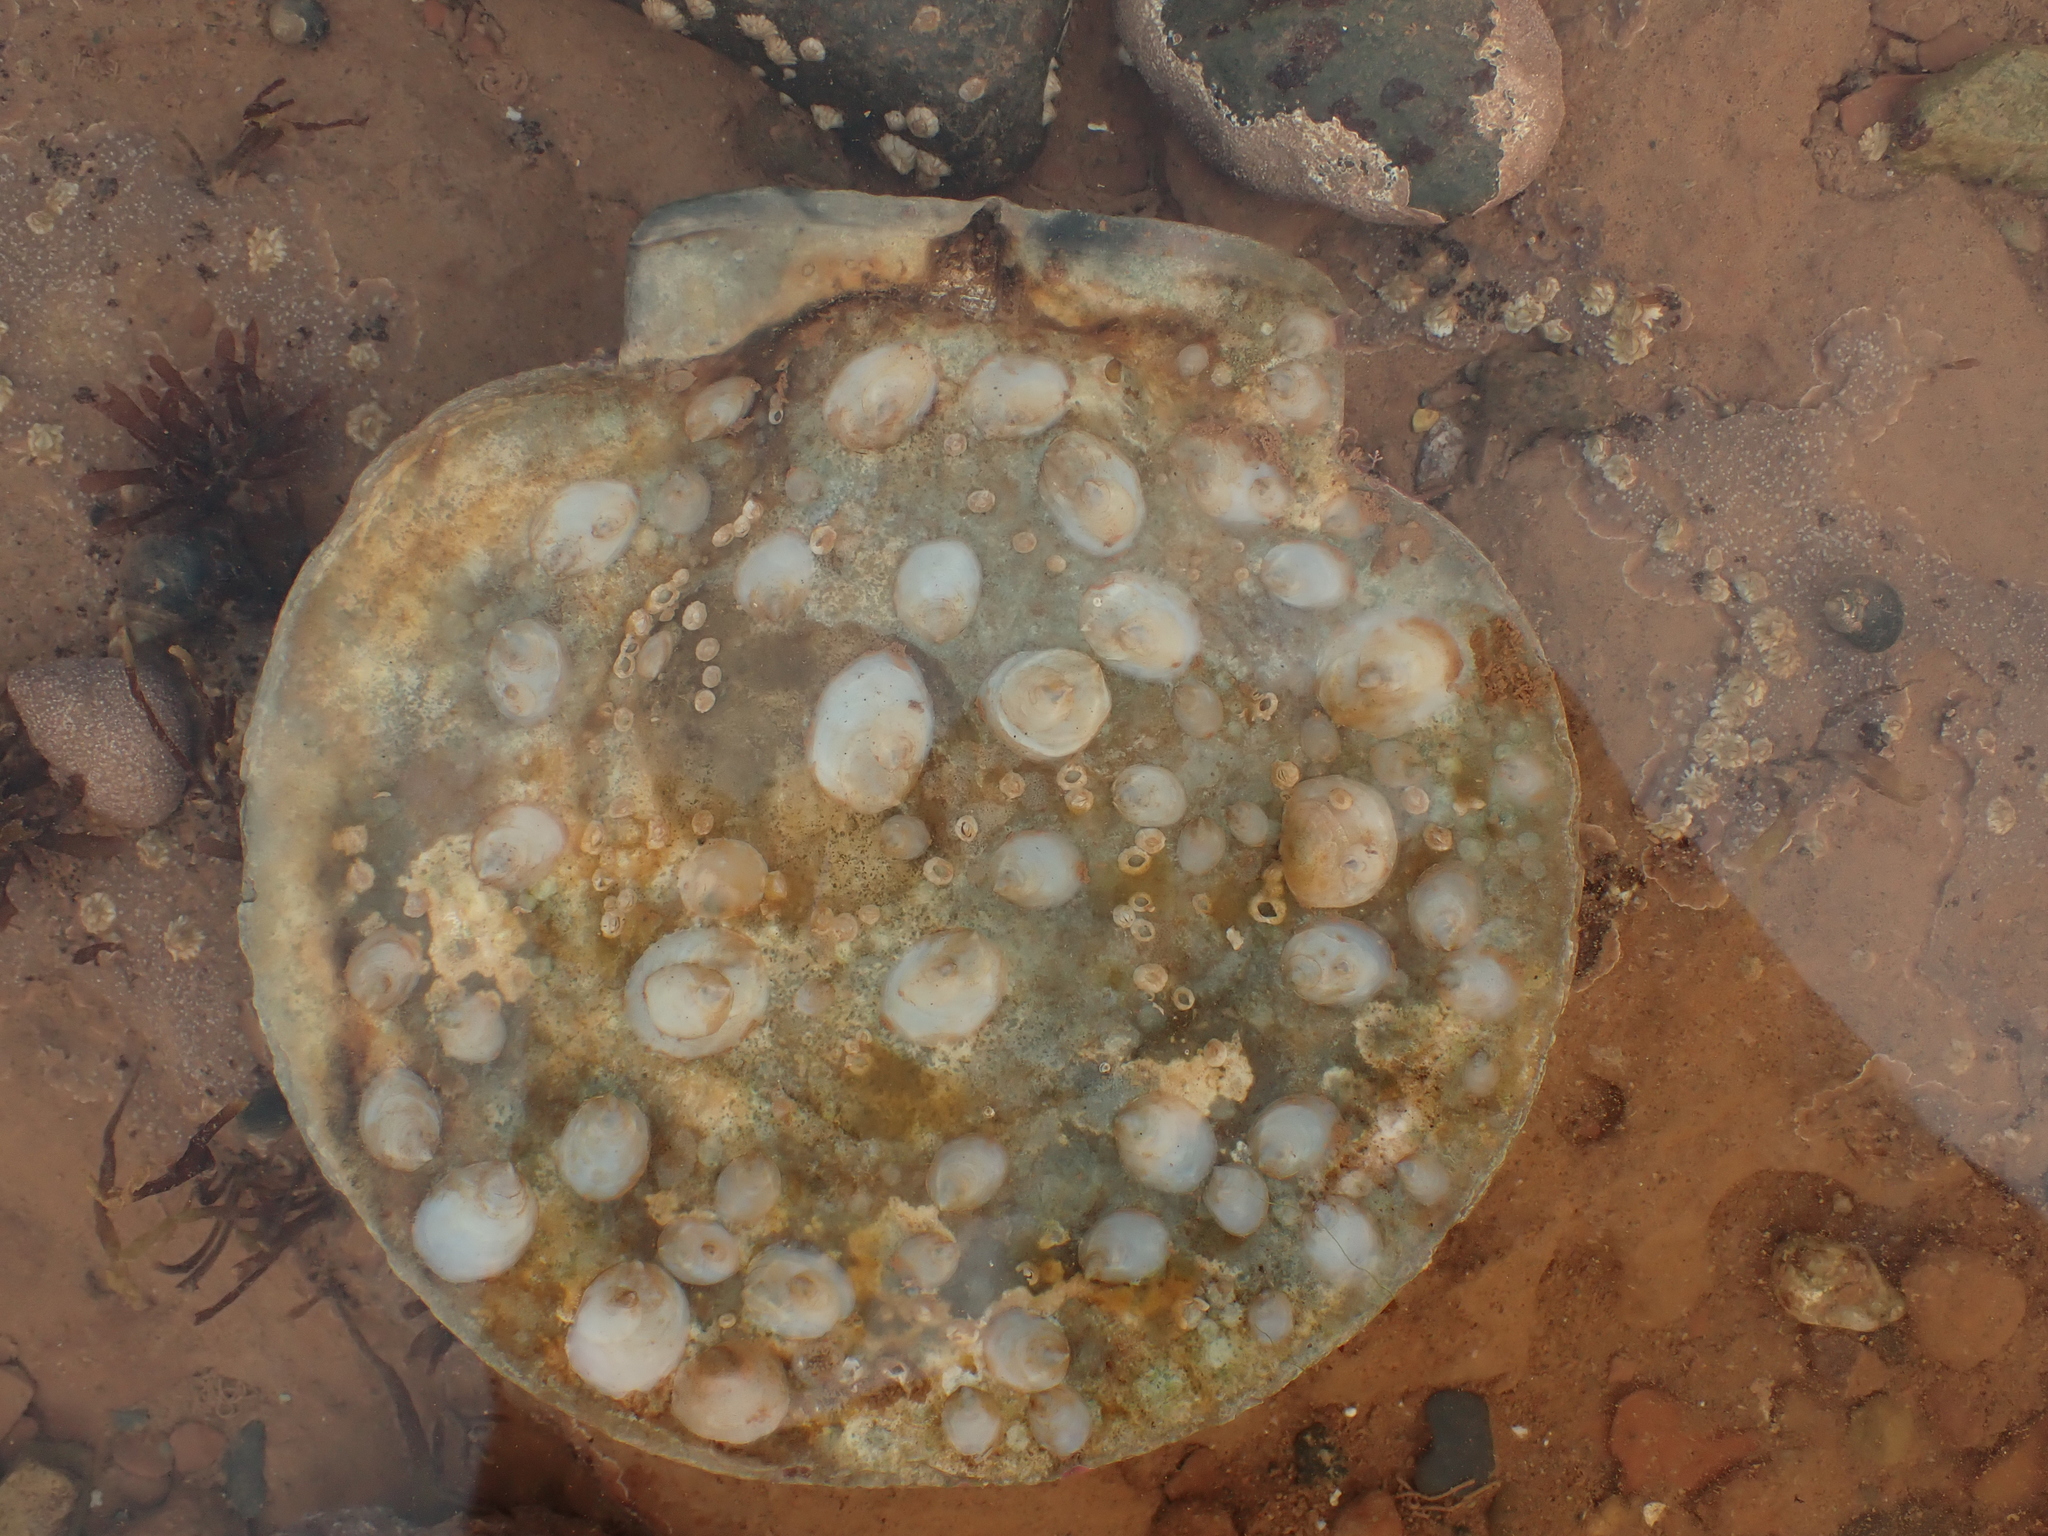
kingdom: Animalia
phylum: Mollusca
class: Gastropoda
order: Littorinimorpha
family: Calyptraeidae
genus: Crepidula
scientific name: Crepidula plana
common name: Eastern white slippersnail
